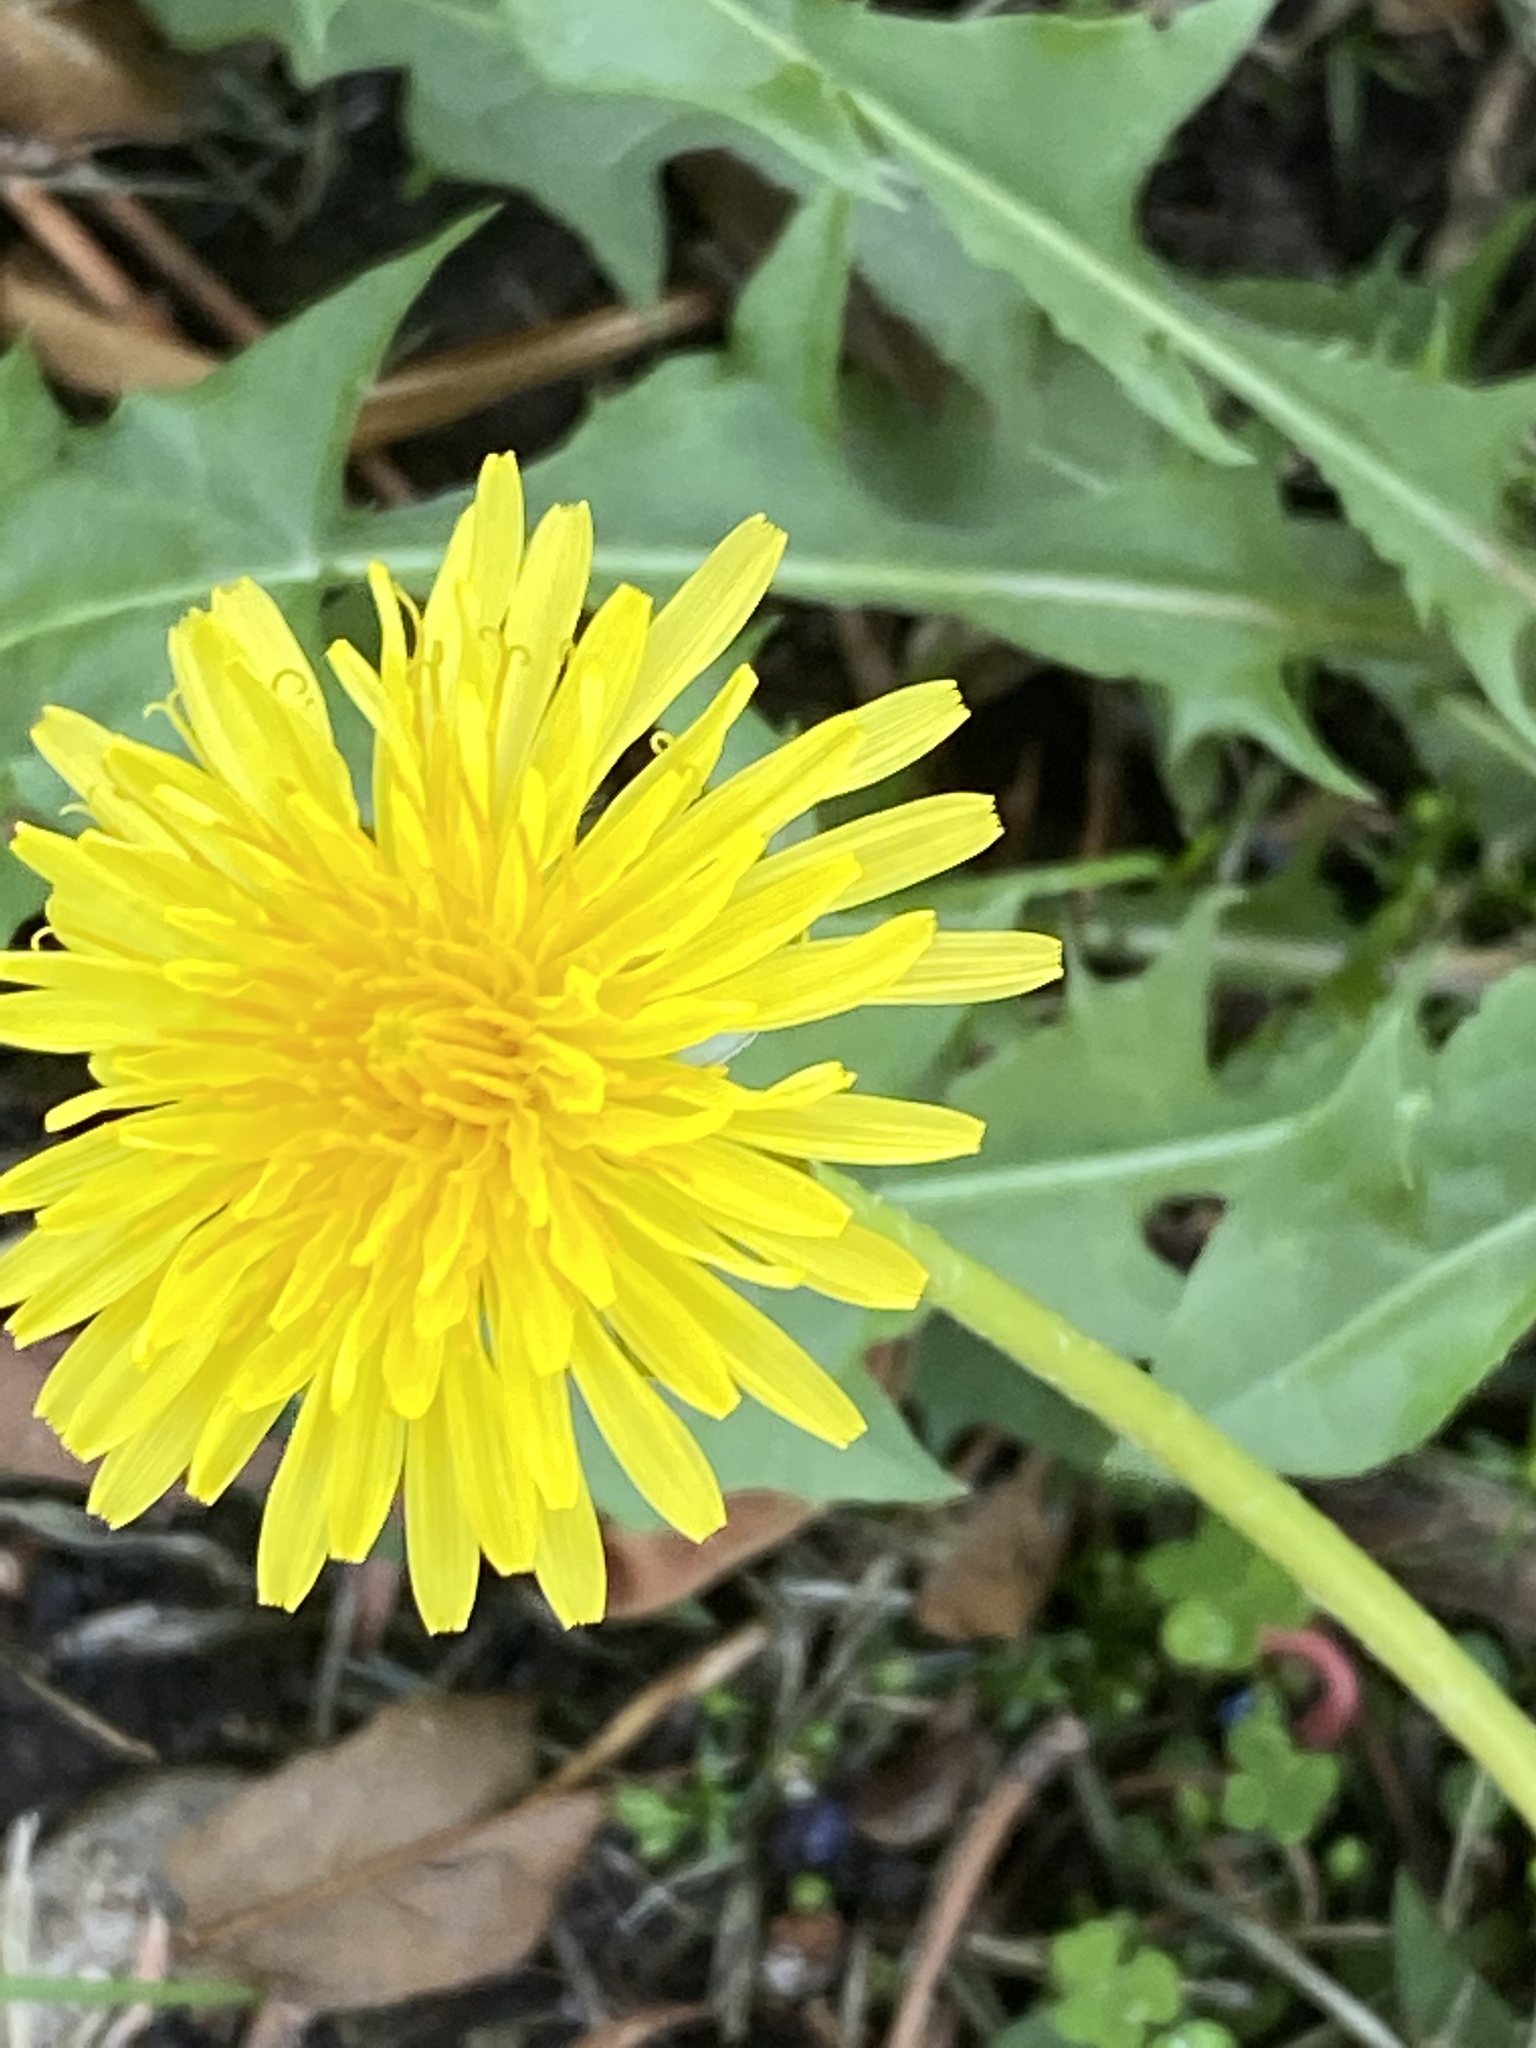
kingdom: Plantae
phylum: Tracheophyta
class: Magnoliopsida
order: Asterales
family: Asteraceae
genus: Taraxacum
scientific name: Taraxacum officinale
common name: Common dandelion
